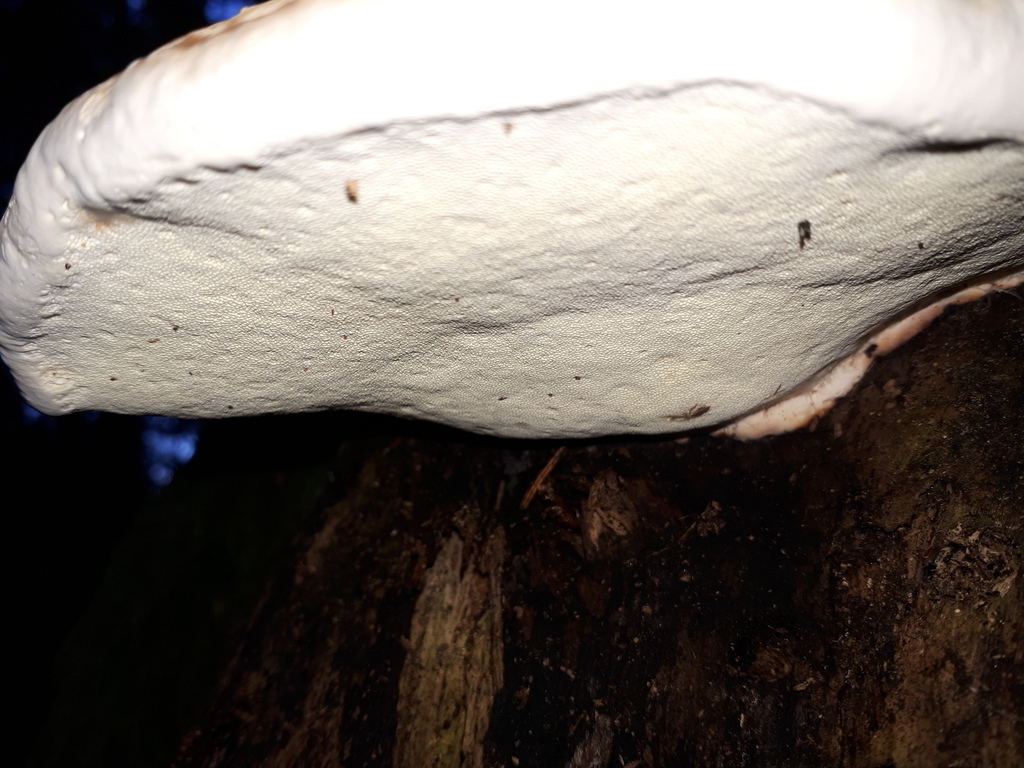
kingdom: Fungi
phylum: Basidiomycota
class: Agaricomycetes
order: Polyporales
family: Fomitopsidaceae
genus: Fomitopsis
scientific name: Fomitopsis pinicola
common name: Red-belted bracket
